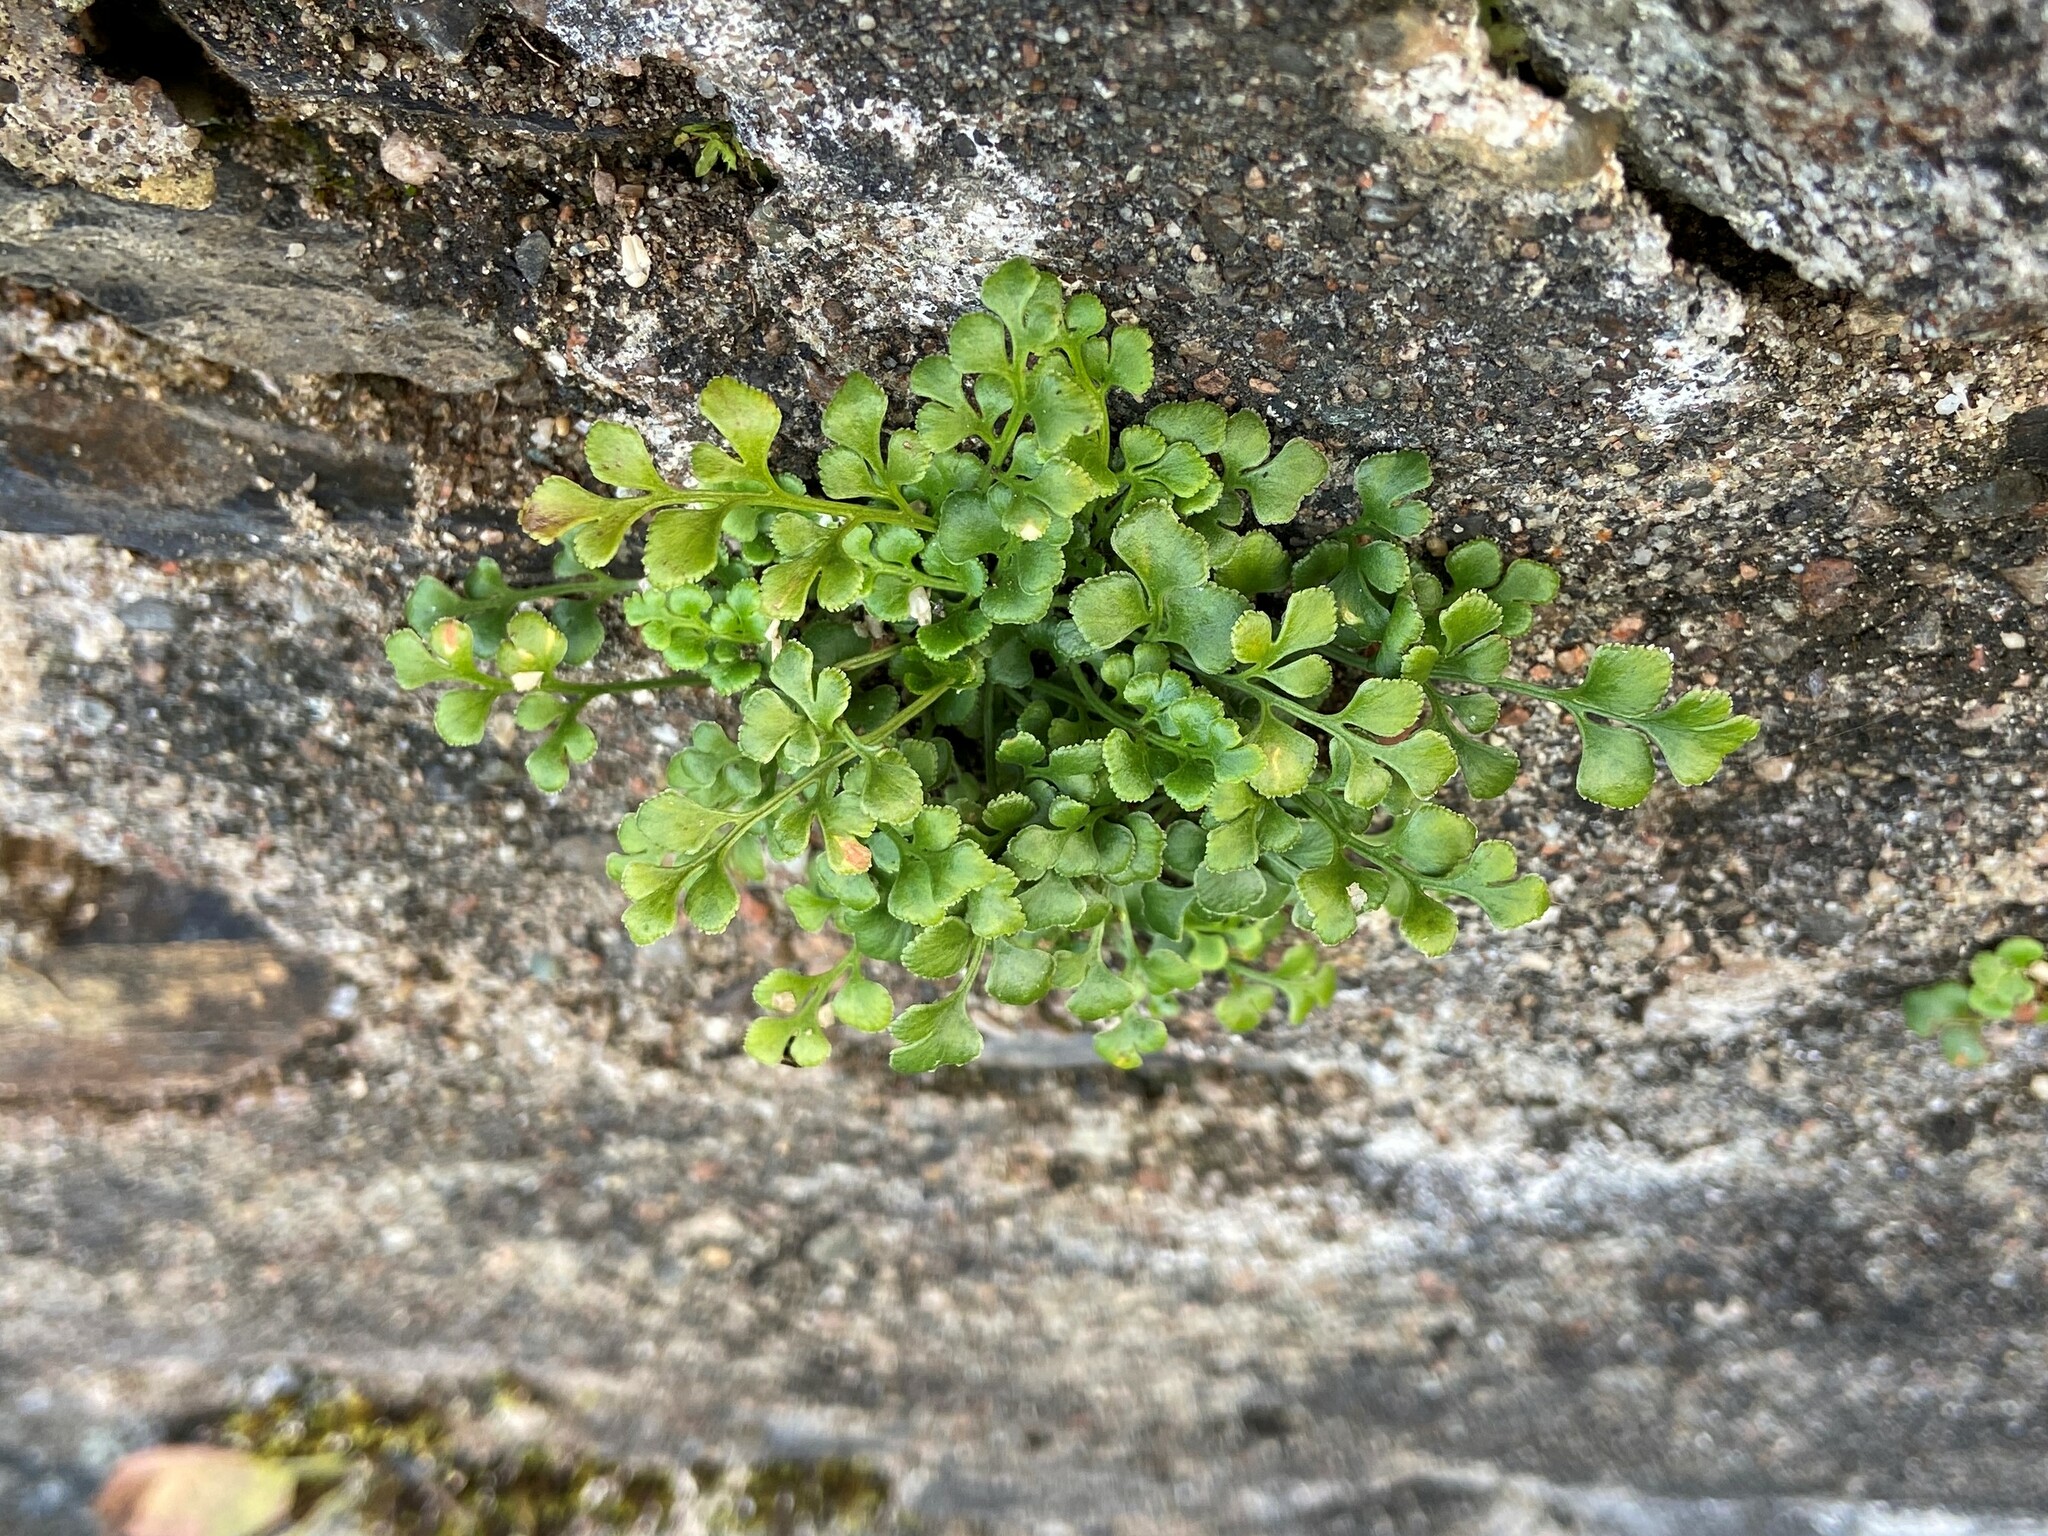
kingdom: Plantae
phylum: Tracheophyta
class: Polypodiopsida
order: Polypodiales
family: Aspleniaceae
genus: Asplenium
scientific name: Asplenium ruta-muraria
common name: Wall-rue
